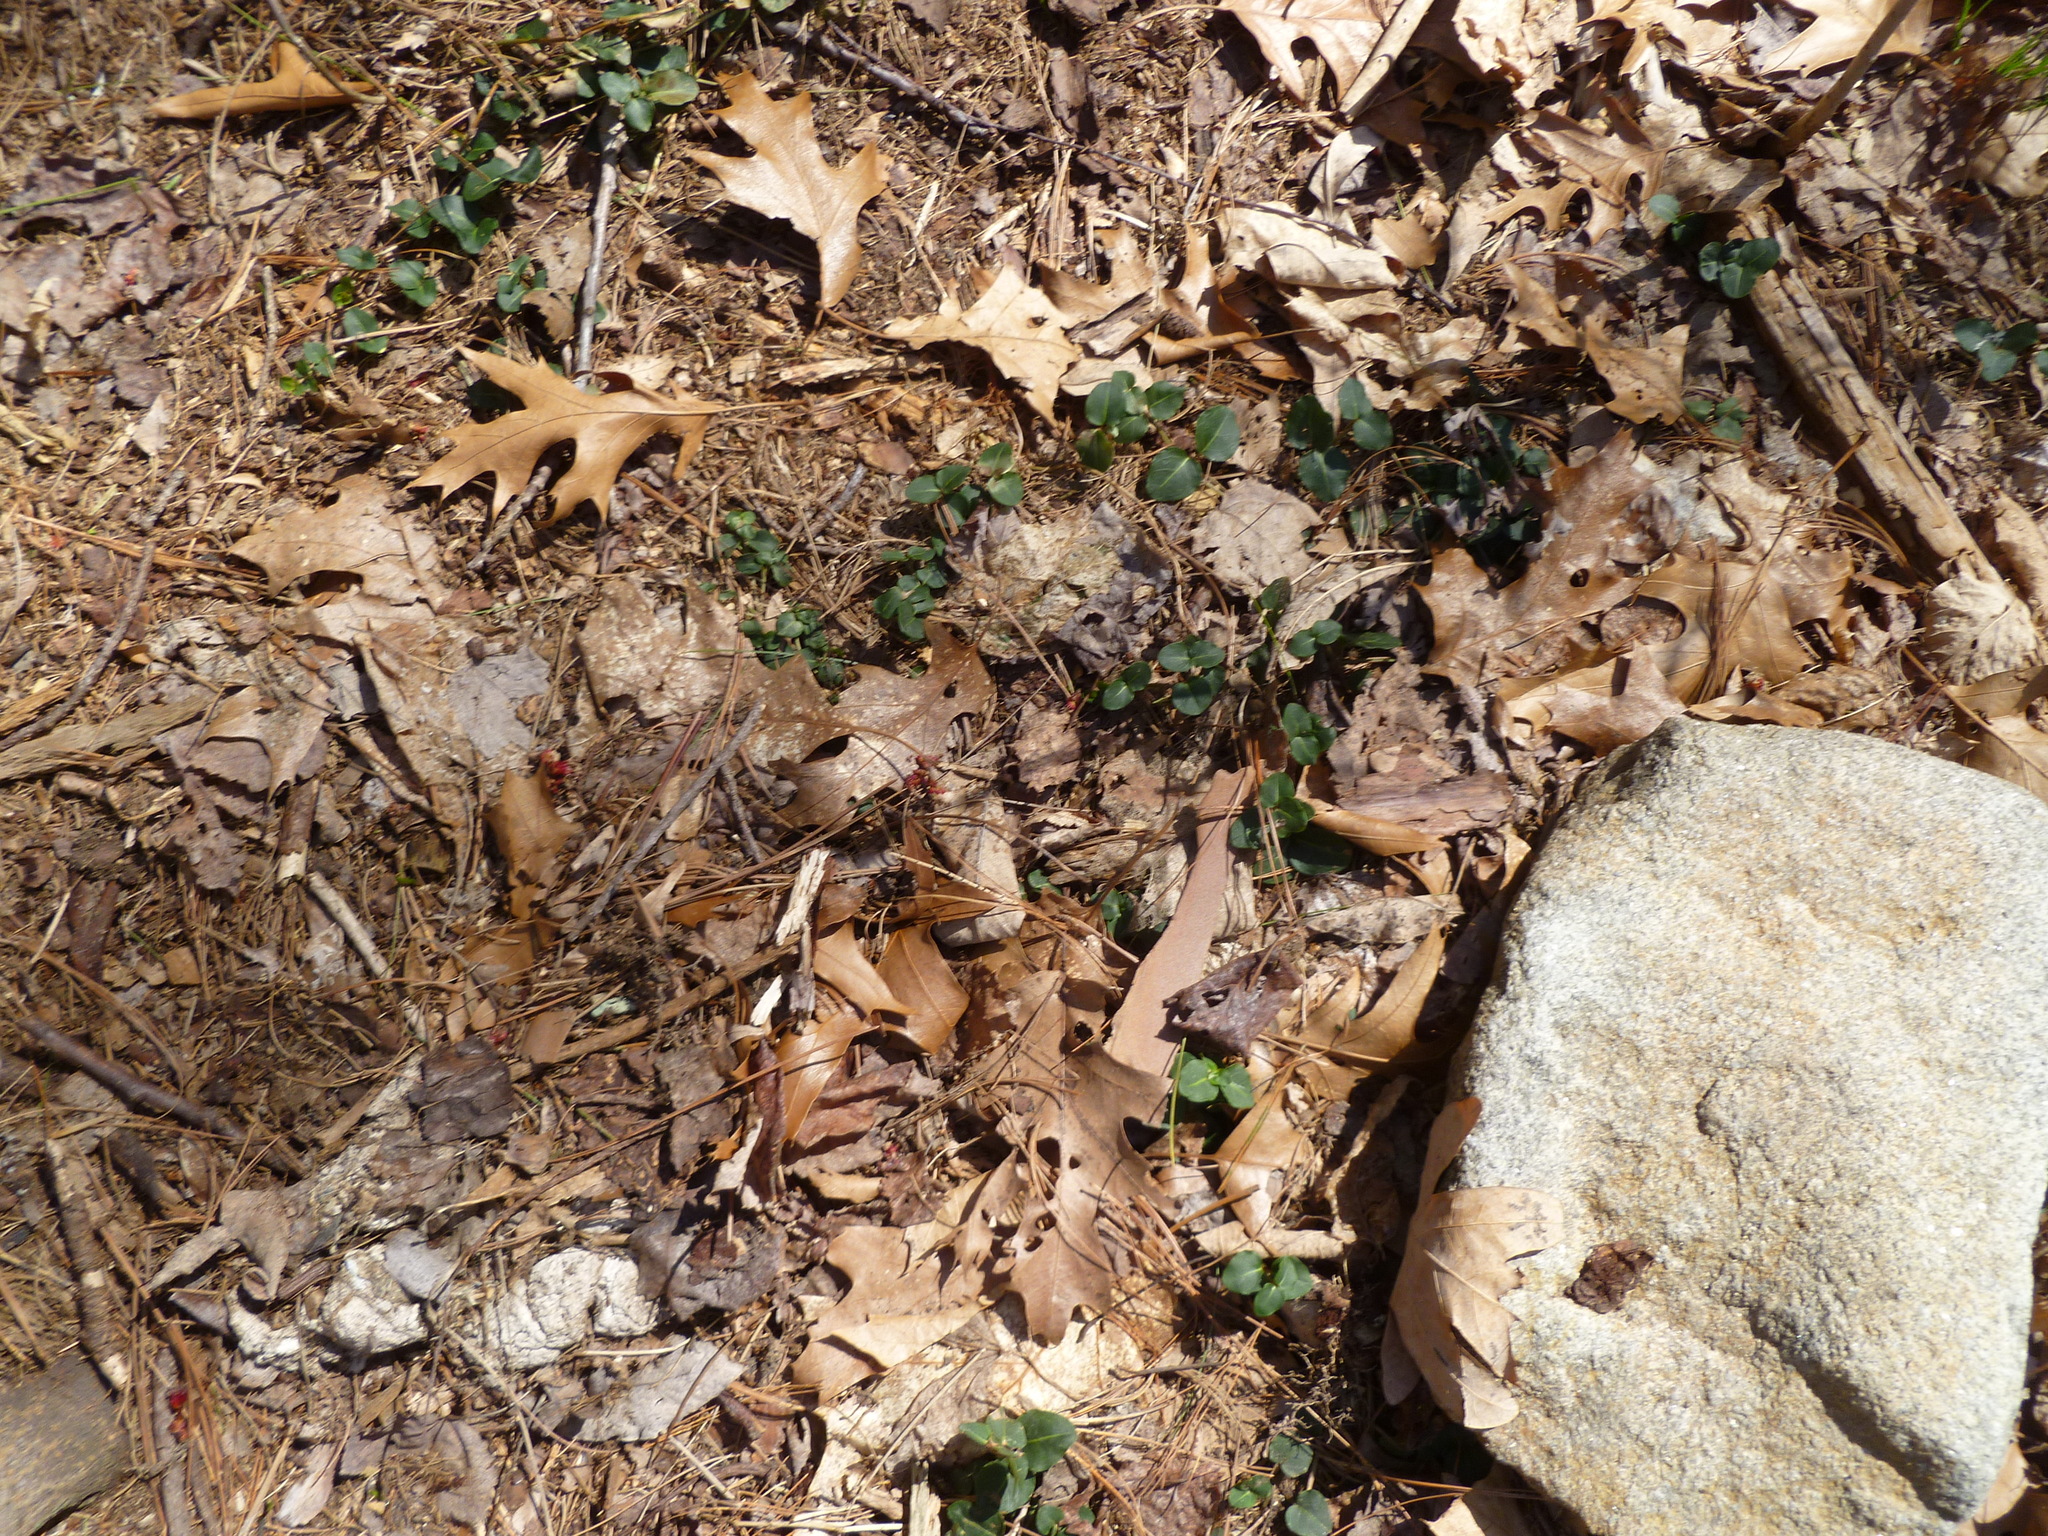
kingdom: Plantae
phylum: Tracheophyta
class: Magnoliopsida
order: Gentianales
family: Rubiaceae
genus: Mitchella
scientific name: Mitchella repens
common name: Partridge-berry
